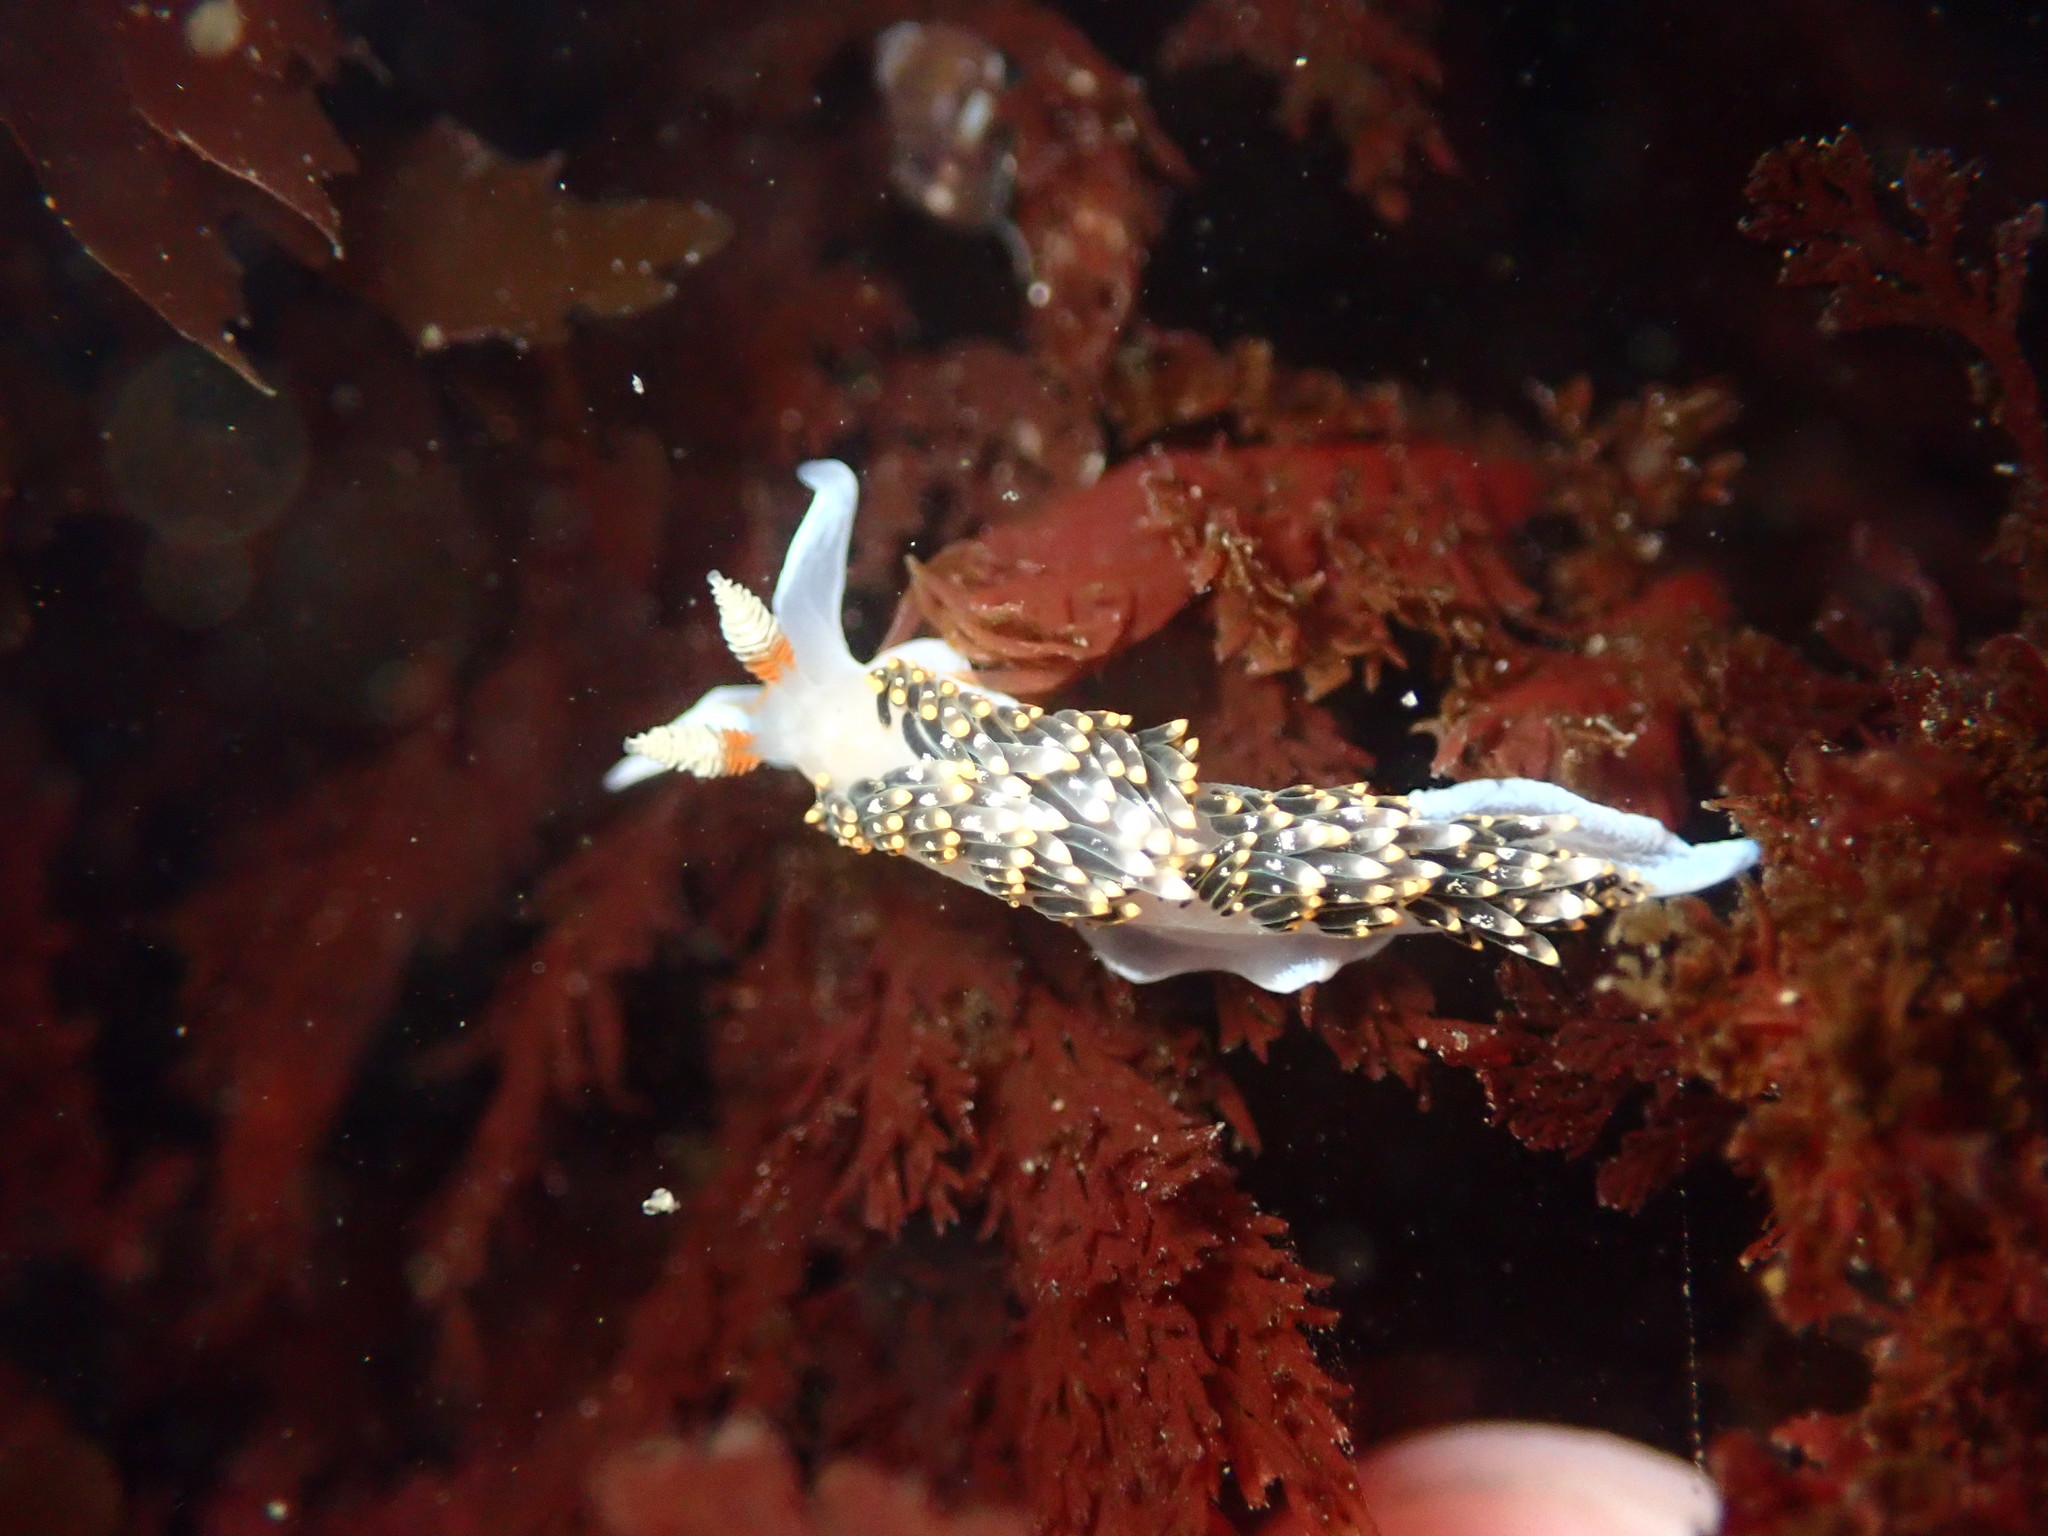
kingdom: Animalia
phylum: Mollusca
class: Gastropoda
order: Nudibranchia
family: Facelinidae
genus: Phidiana
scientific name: Phidiana hiltoni
